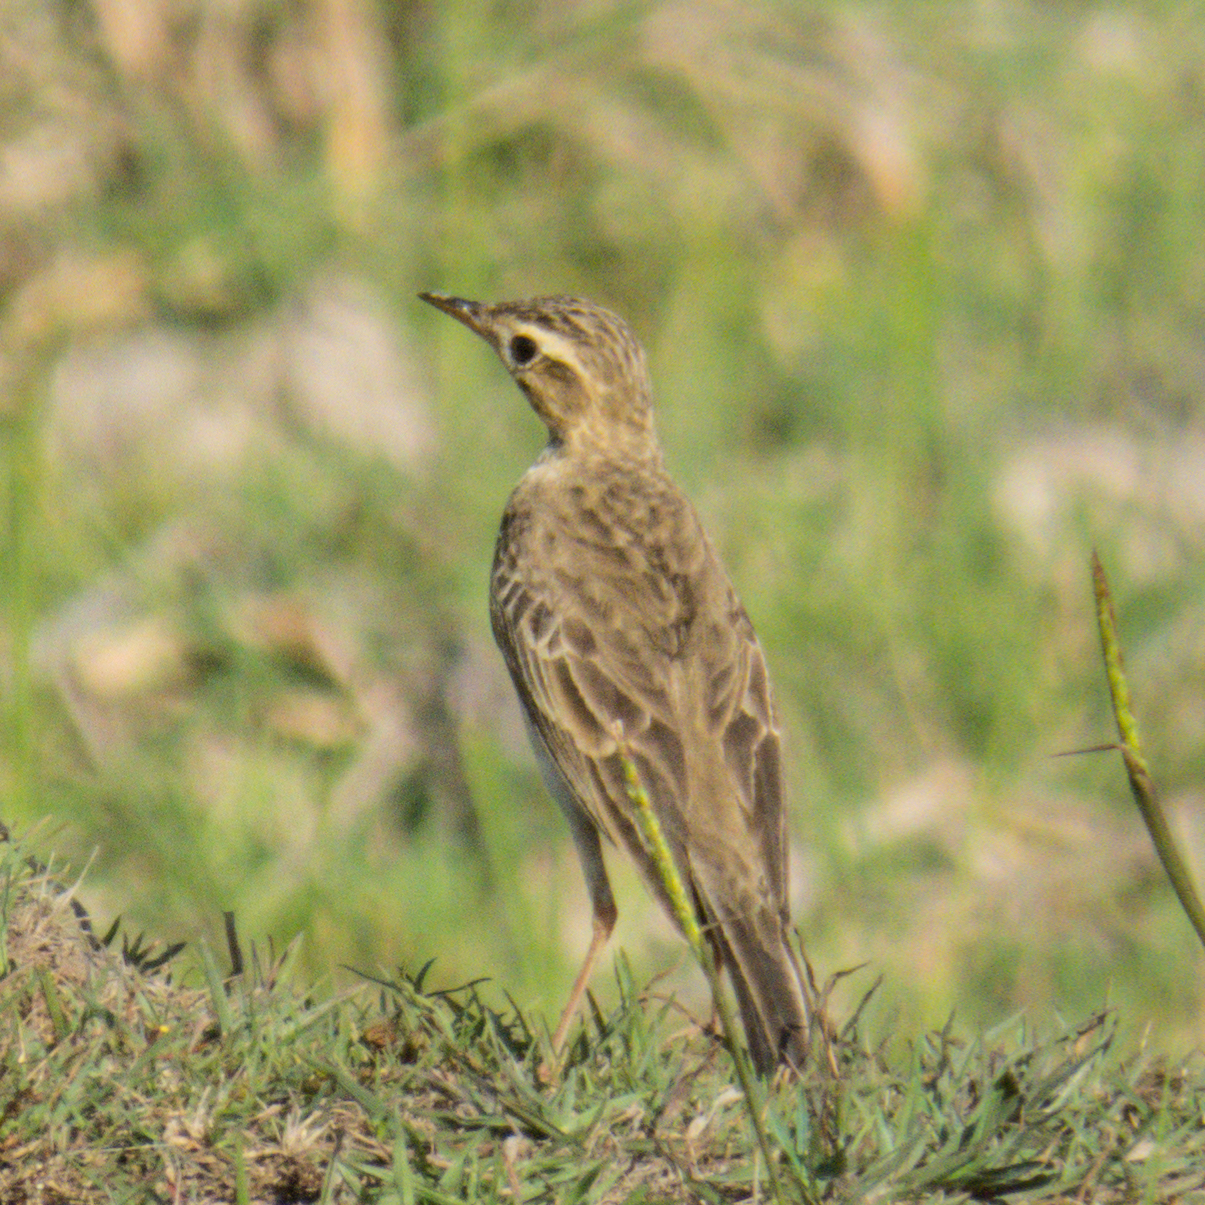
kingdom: Animalia
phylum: Chordata
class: Aves
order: Passeriformes
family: Motacillidae
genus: Anthus
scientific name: Anthus rufulus
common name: Paddyfield pipit
